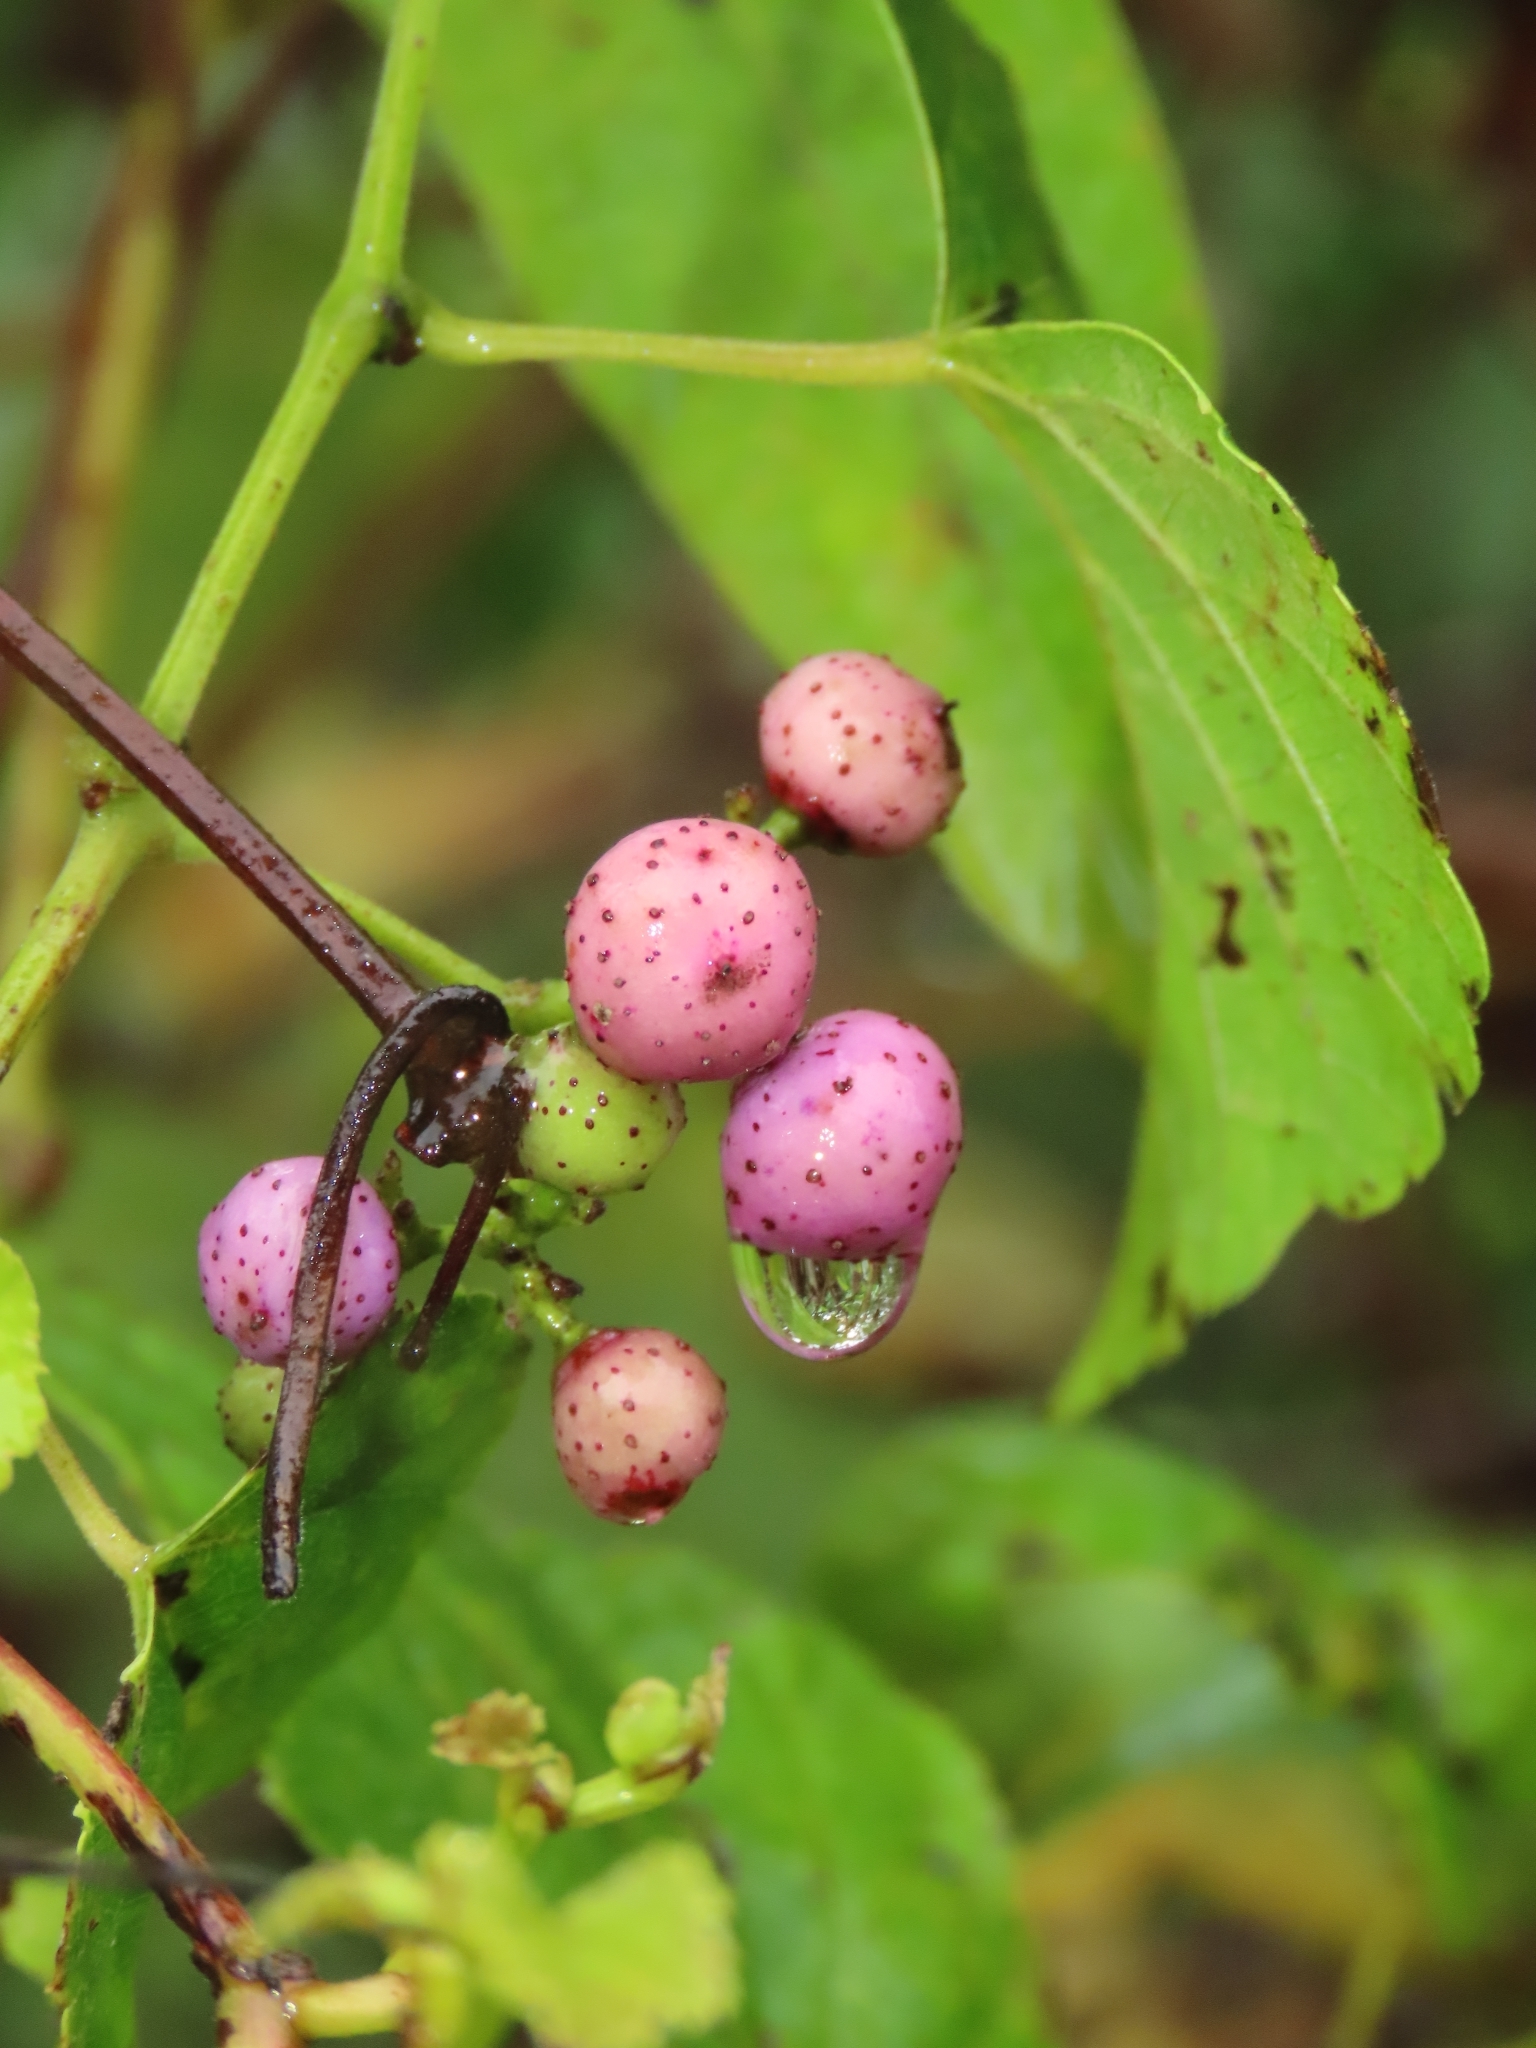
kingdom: Plantae
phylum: Tracheophyta
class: Magnoliopsida
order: Vitales
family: Vitaceae
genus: Ampelopsis
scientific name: Ampelopsis glandulosa
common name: Amur peppervine
